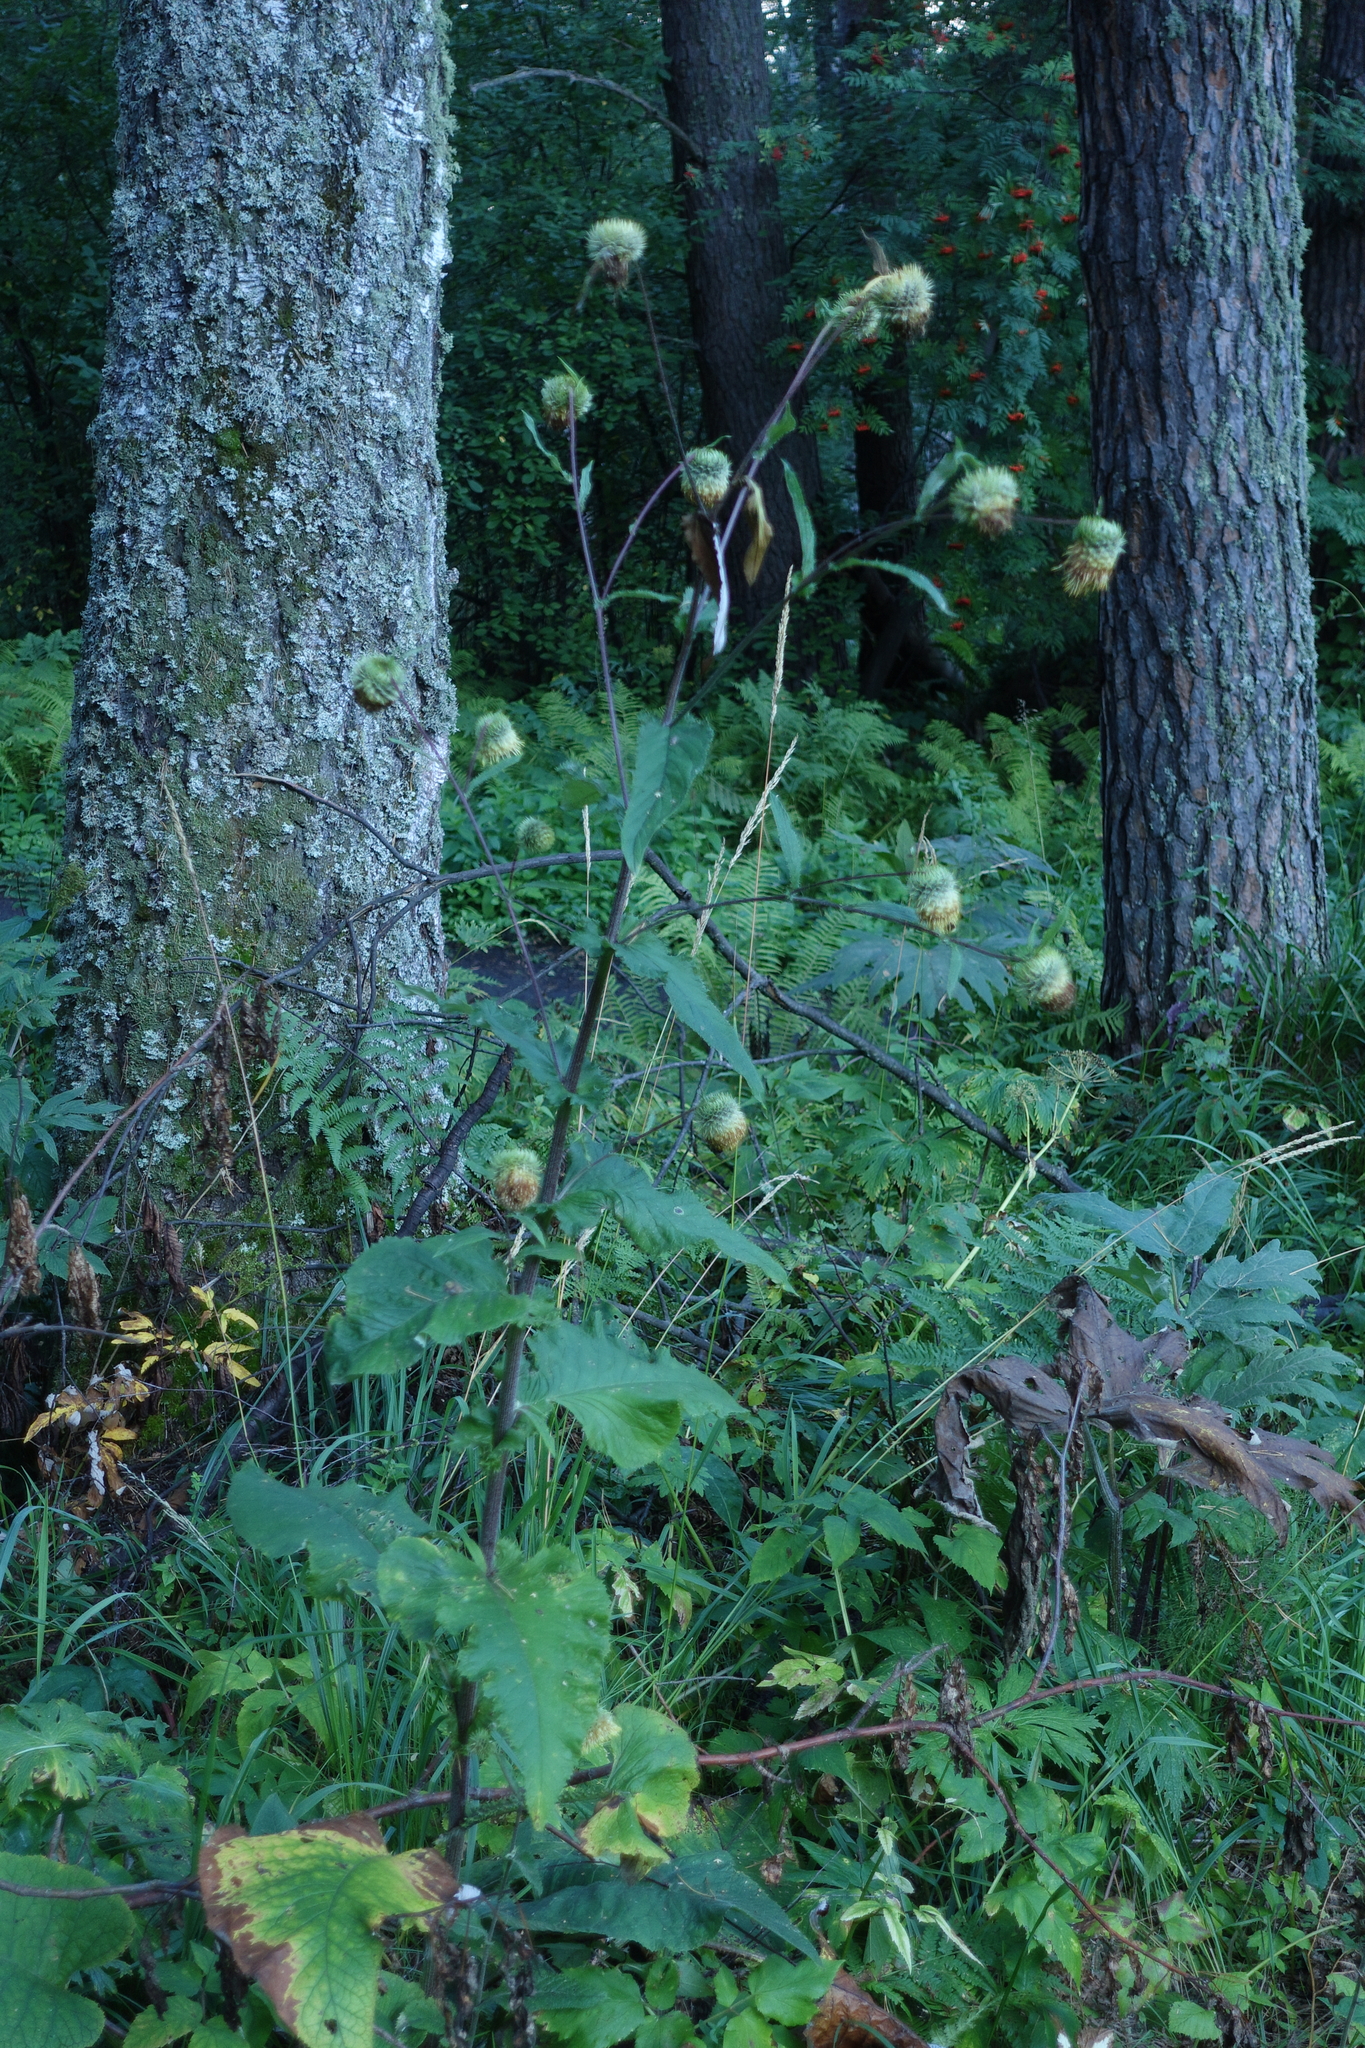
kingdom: Plantae
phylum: Tracheophyta
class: Magnoliopsida
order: Asterales
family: Asteraceae
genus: Alfredia
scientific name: Alfredia cernua
